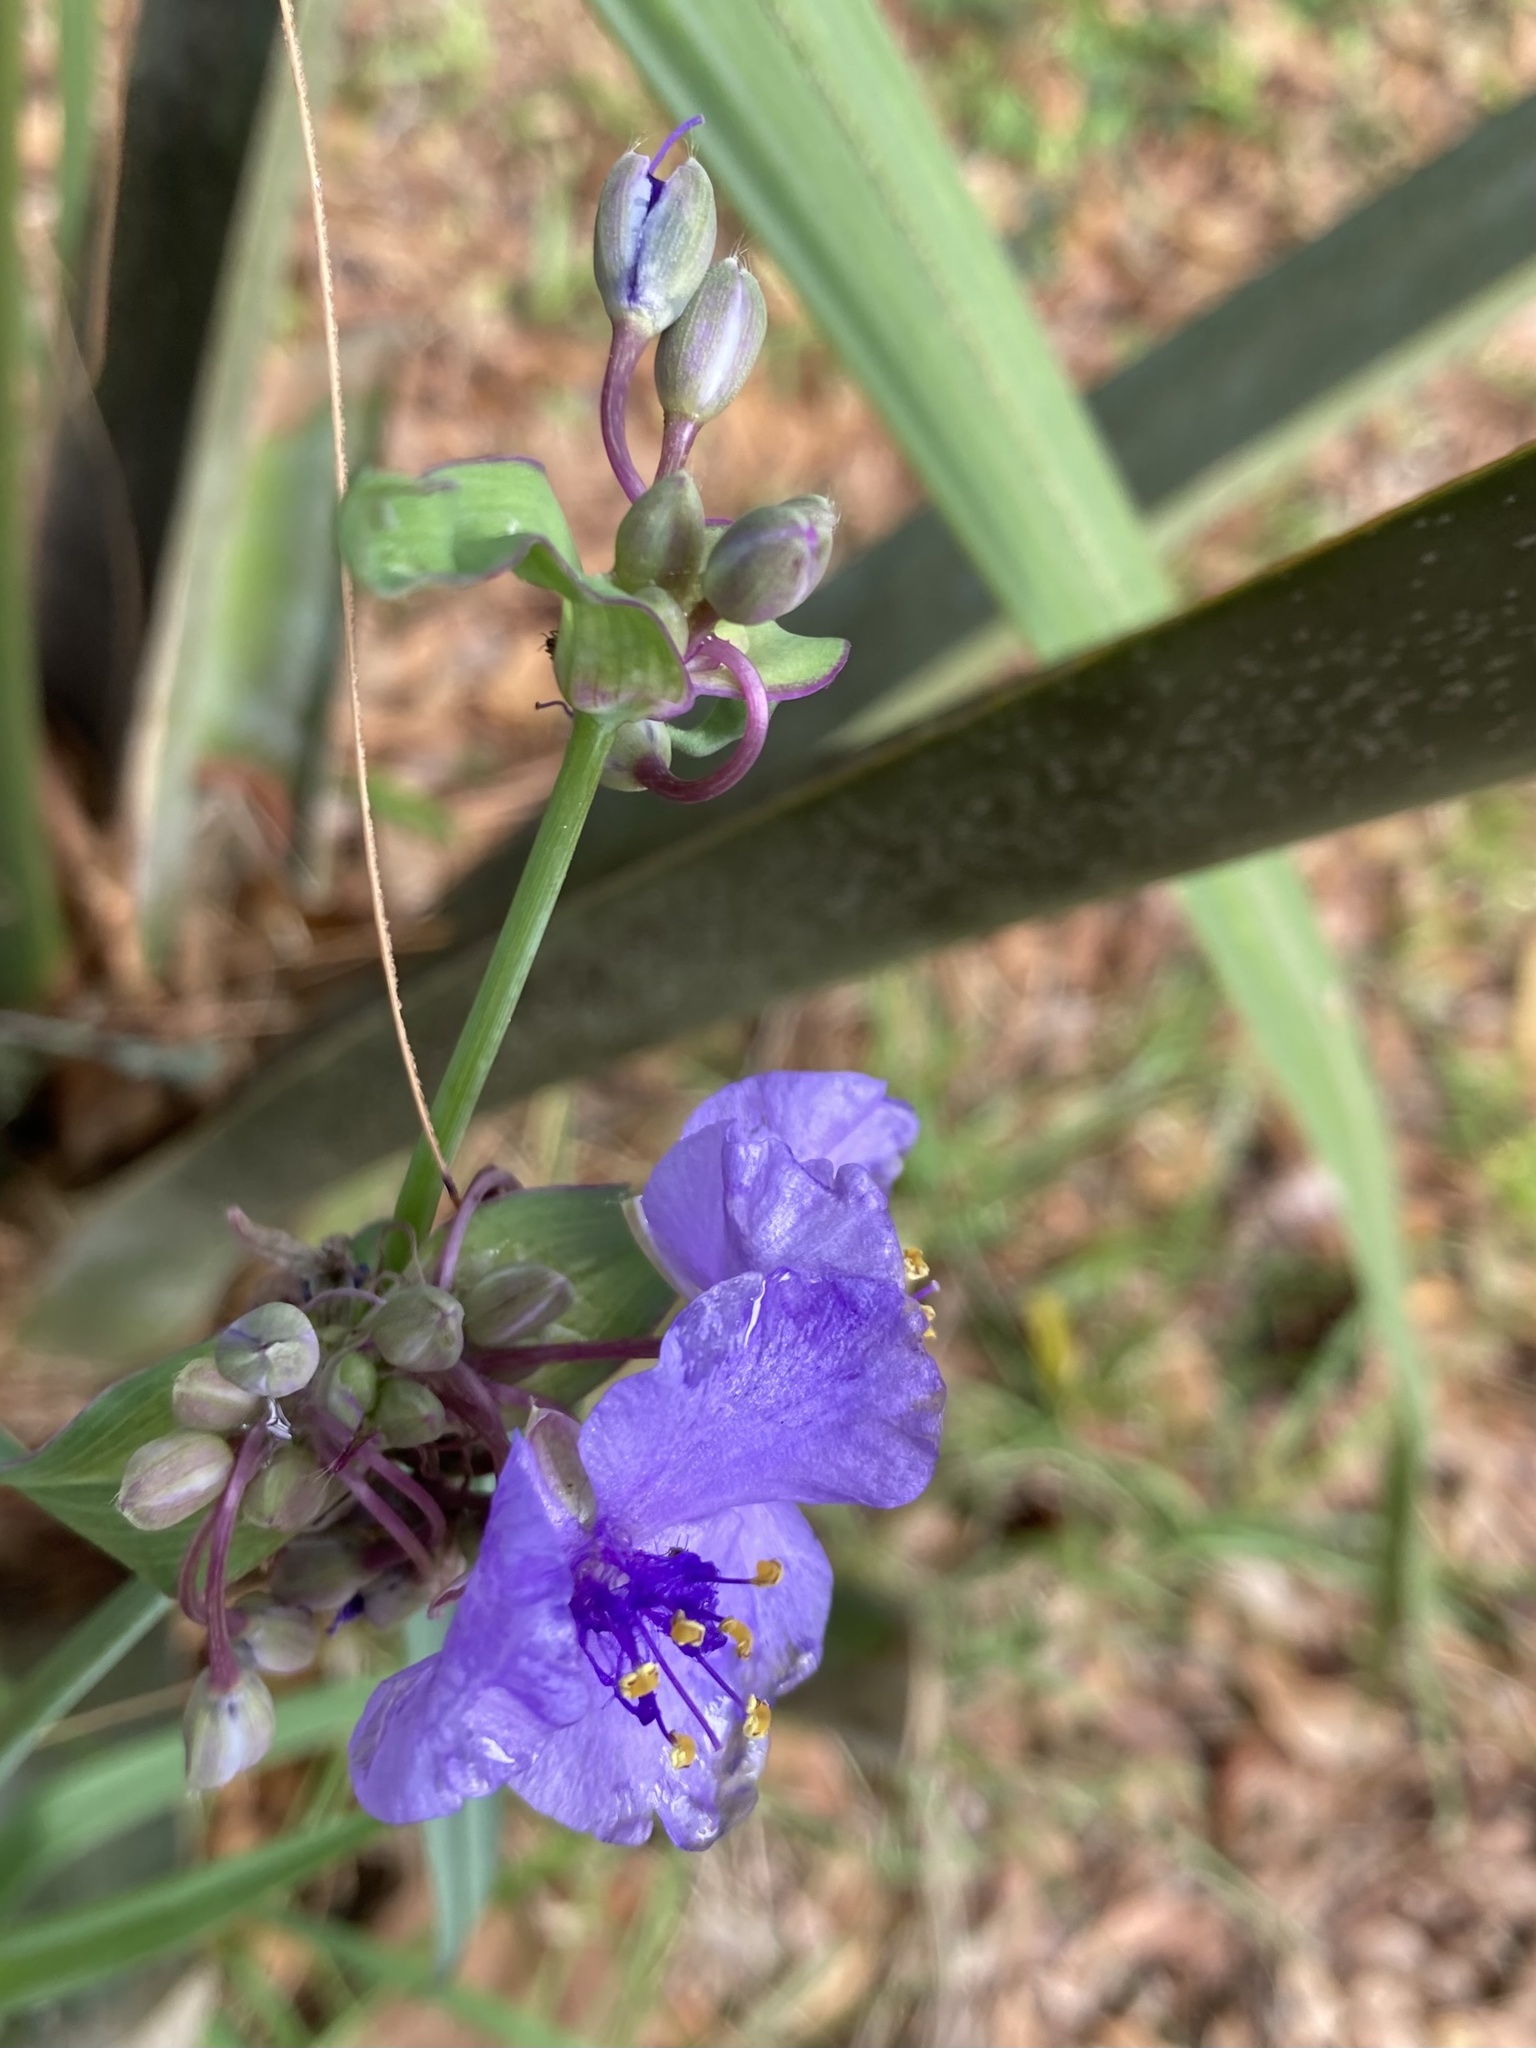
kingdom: Plantae
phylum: Tracheophyta
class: Liliopsida
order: Commelinales
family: Commelinaceae
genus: Tradescantia
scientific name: Tradescantia ohiensis
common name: Ohio spiderwort
